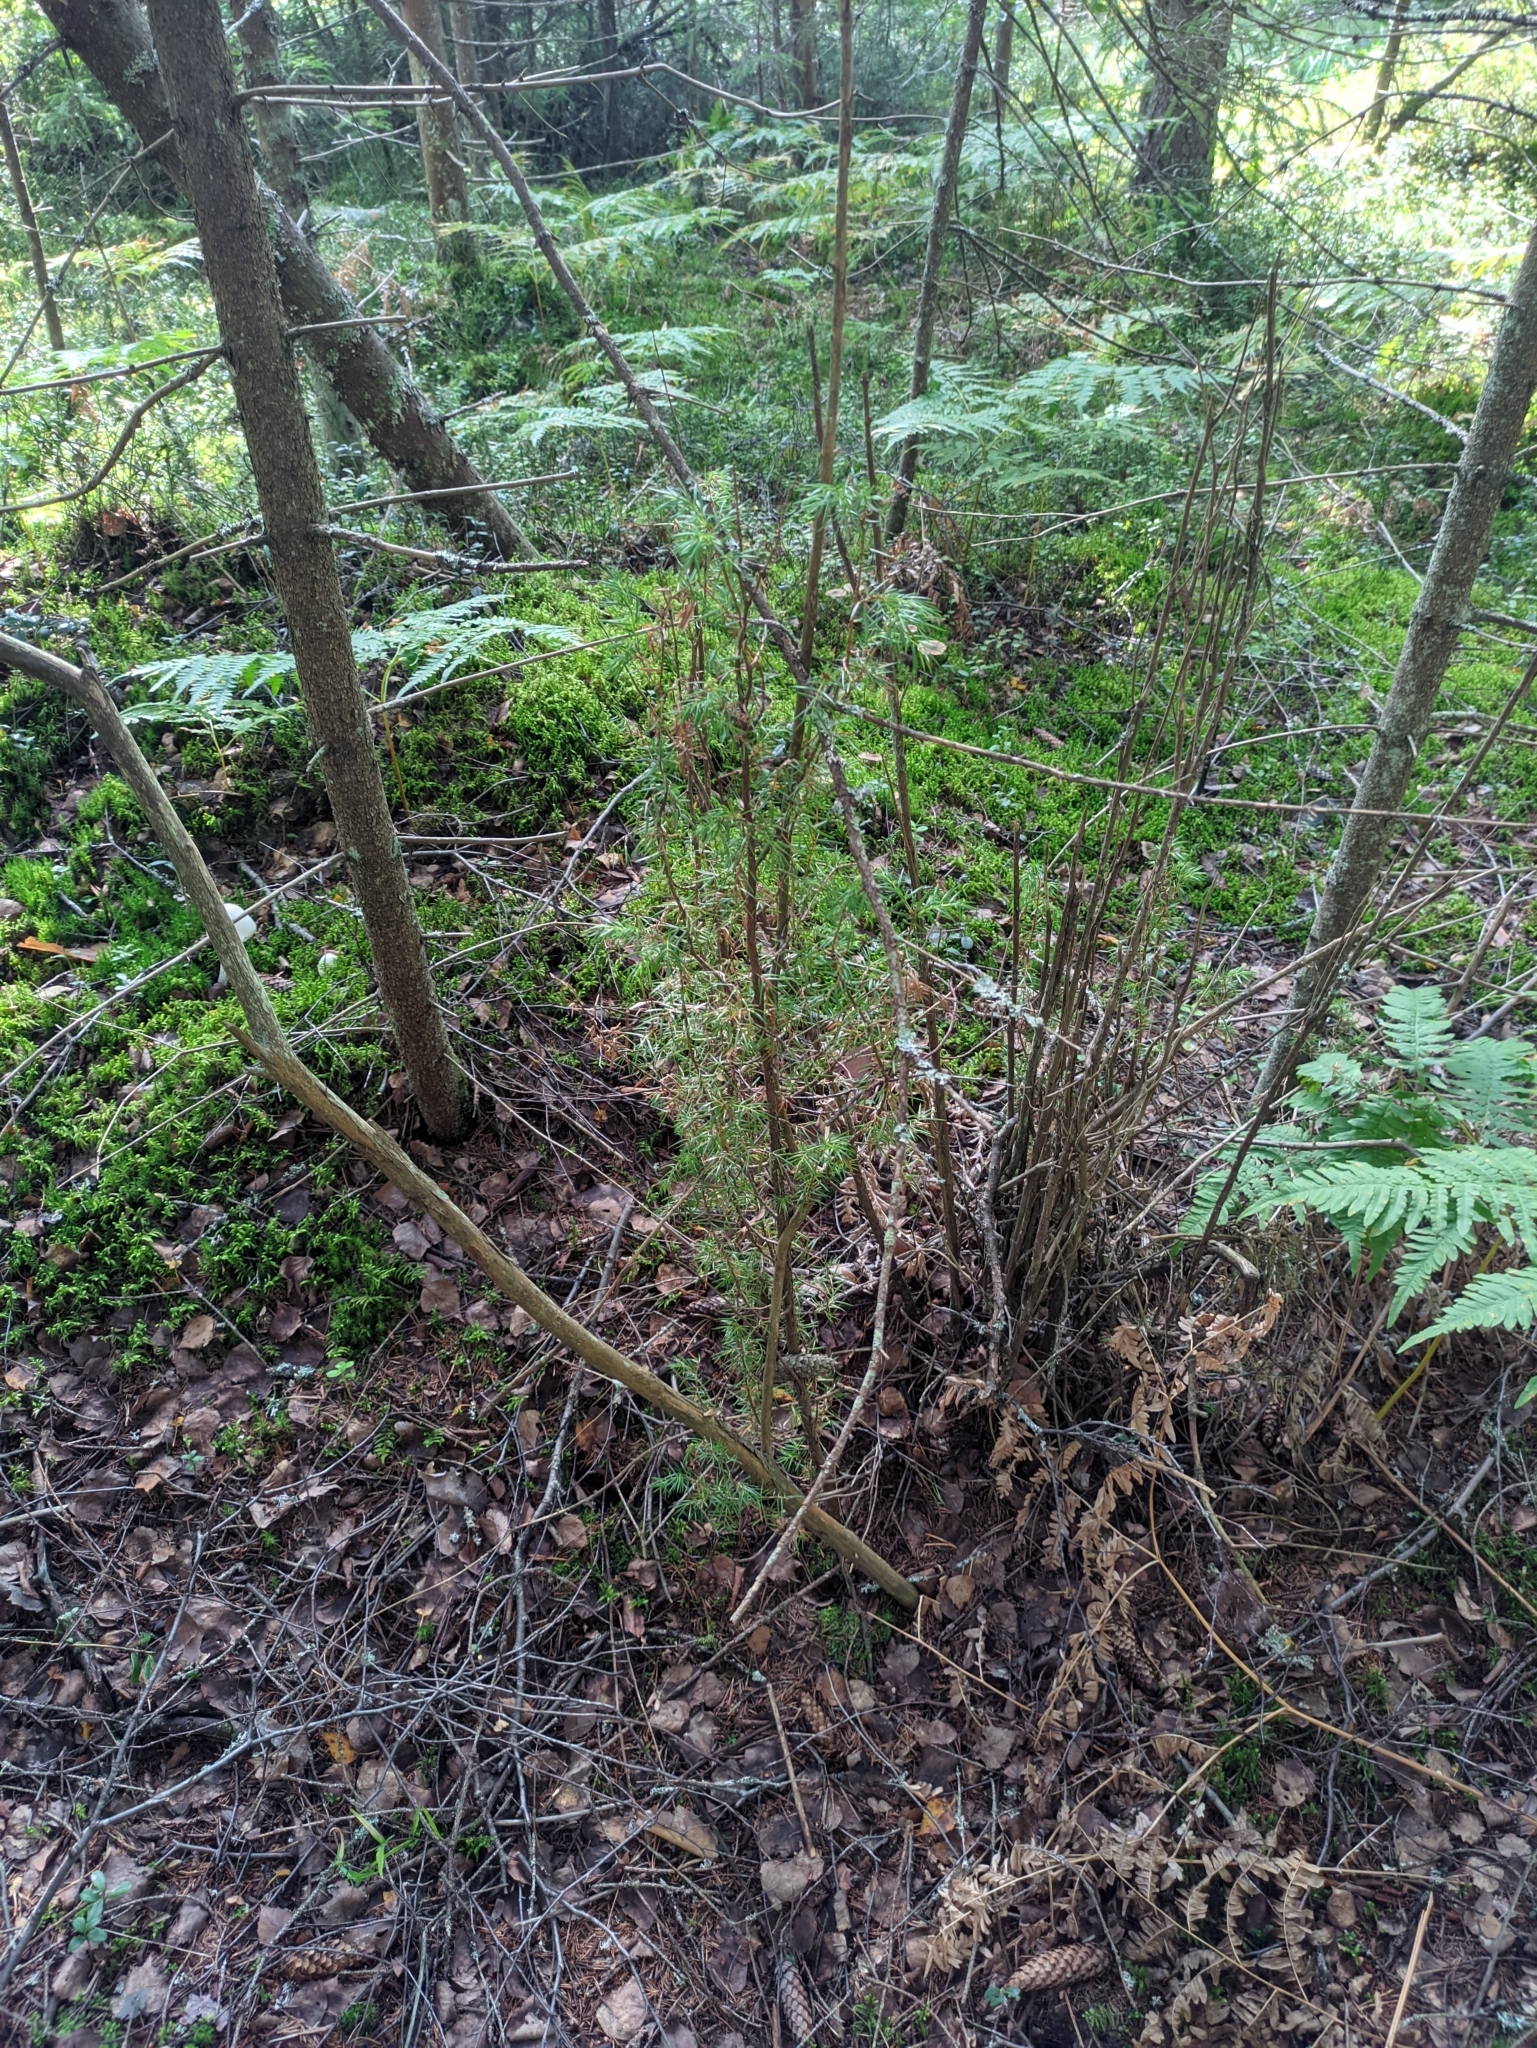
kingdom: Plantae
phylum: Tracheophyta
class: Pinopsida
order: Pinales
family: Cupressaceae
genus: Juniperus
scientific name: Juniperus communis
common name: Common juniper
